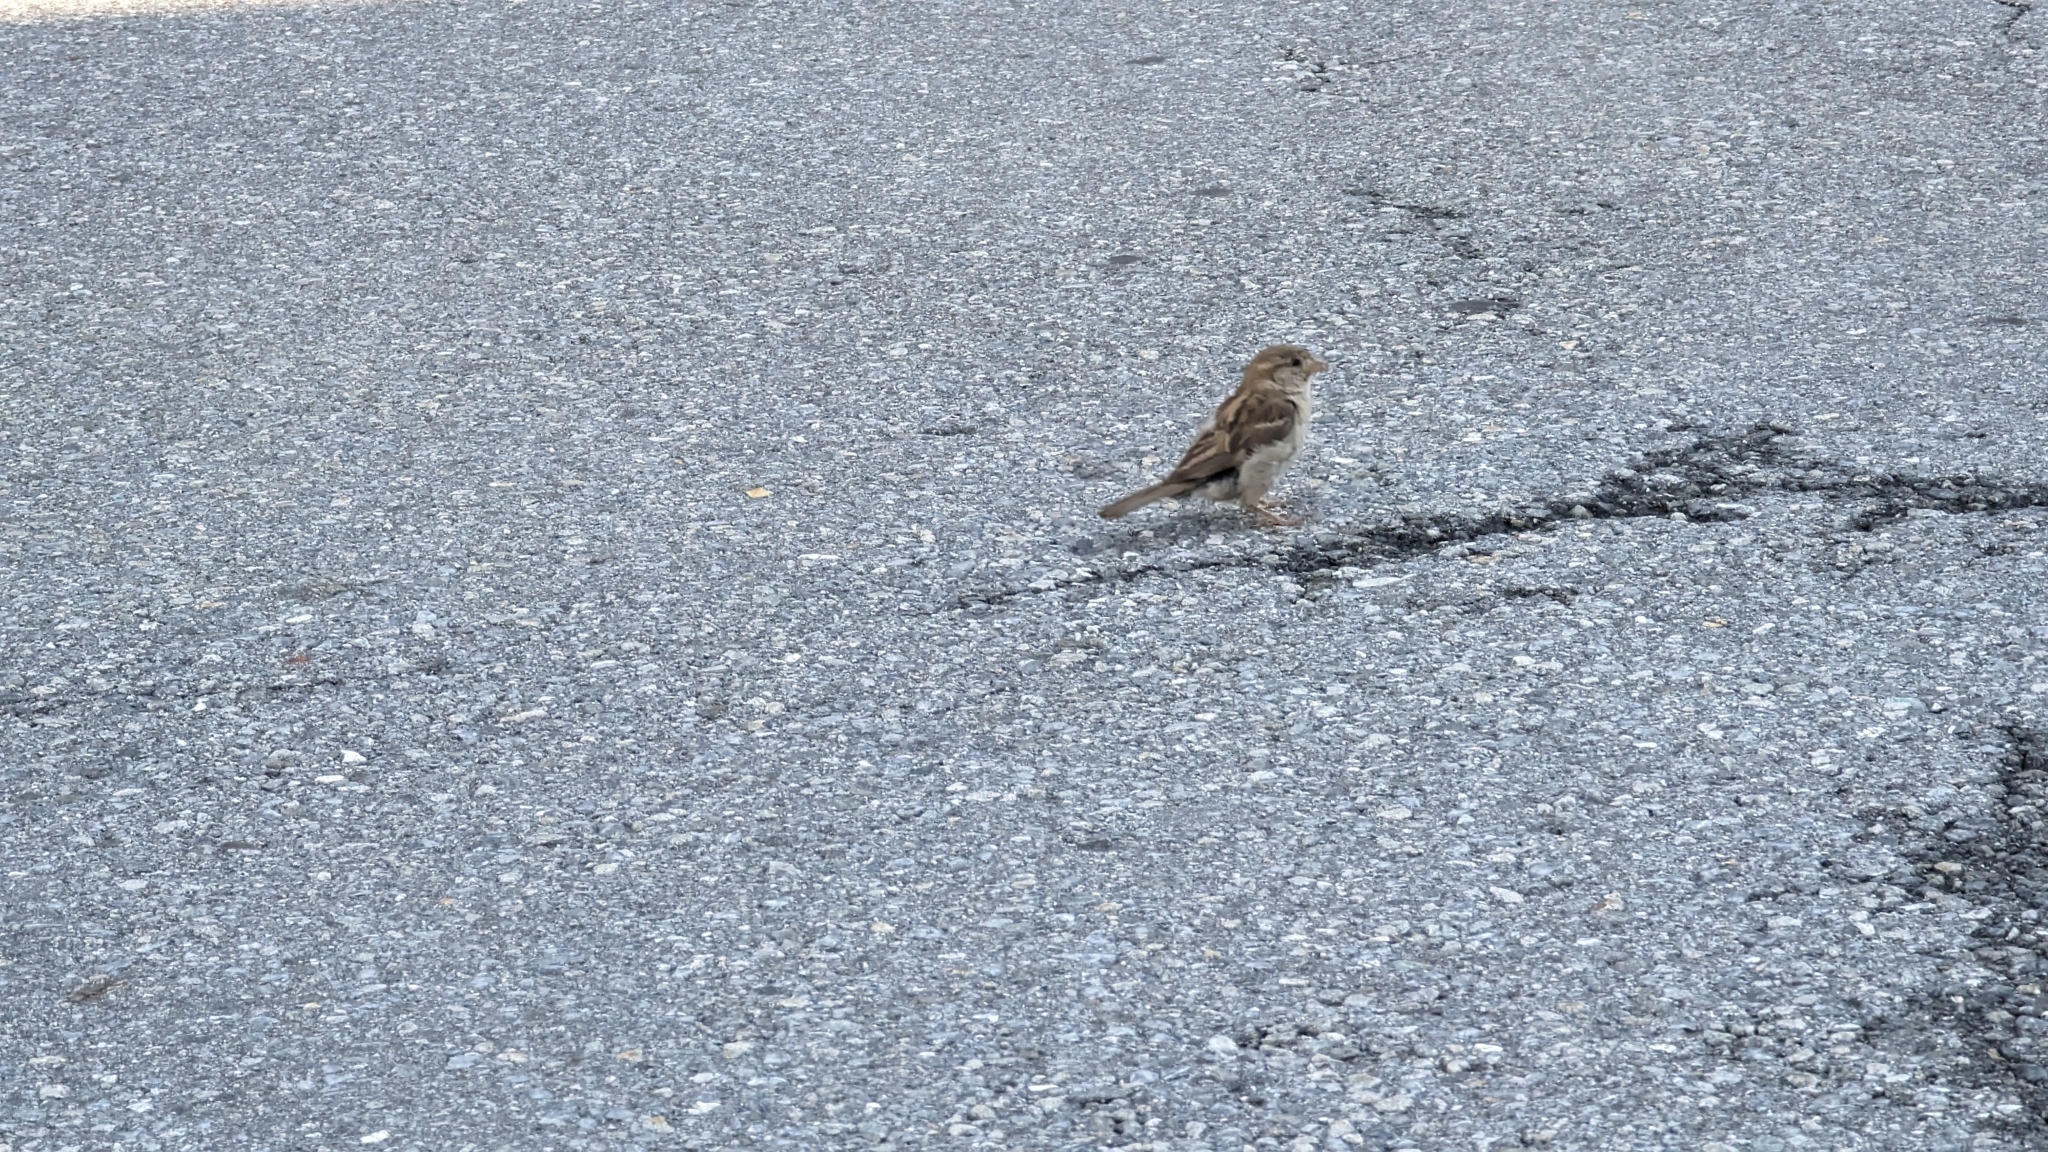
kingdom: Animalia
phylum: Chordata
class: Aves
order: Passeriformes
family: Passeridae
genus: Passer
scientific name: Passer domesticus
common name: House sparrow
